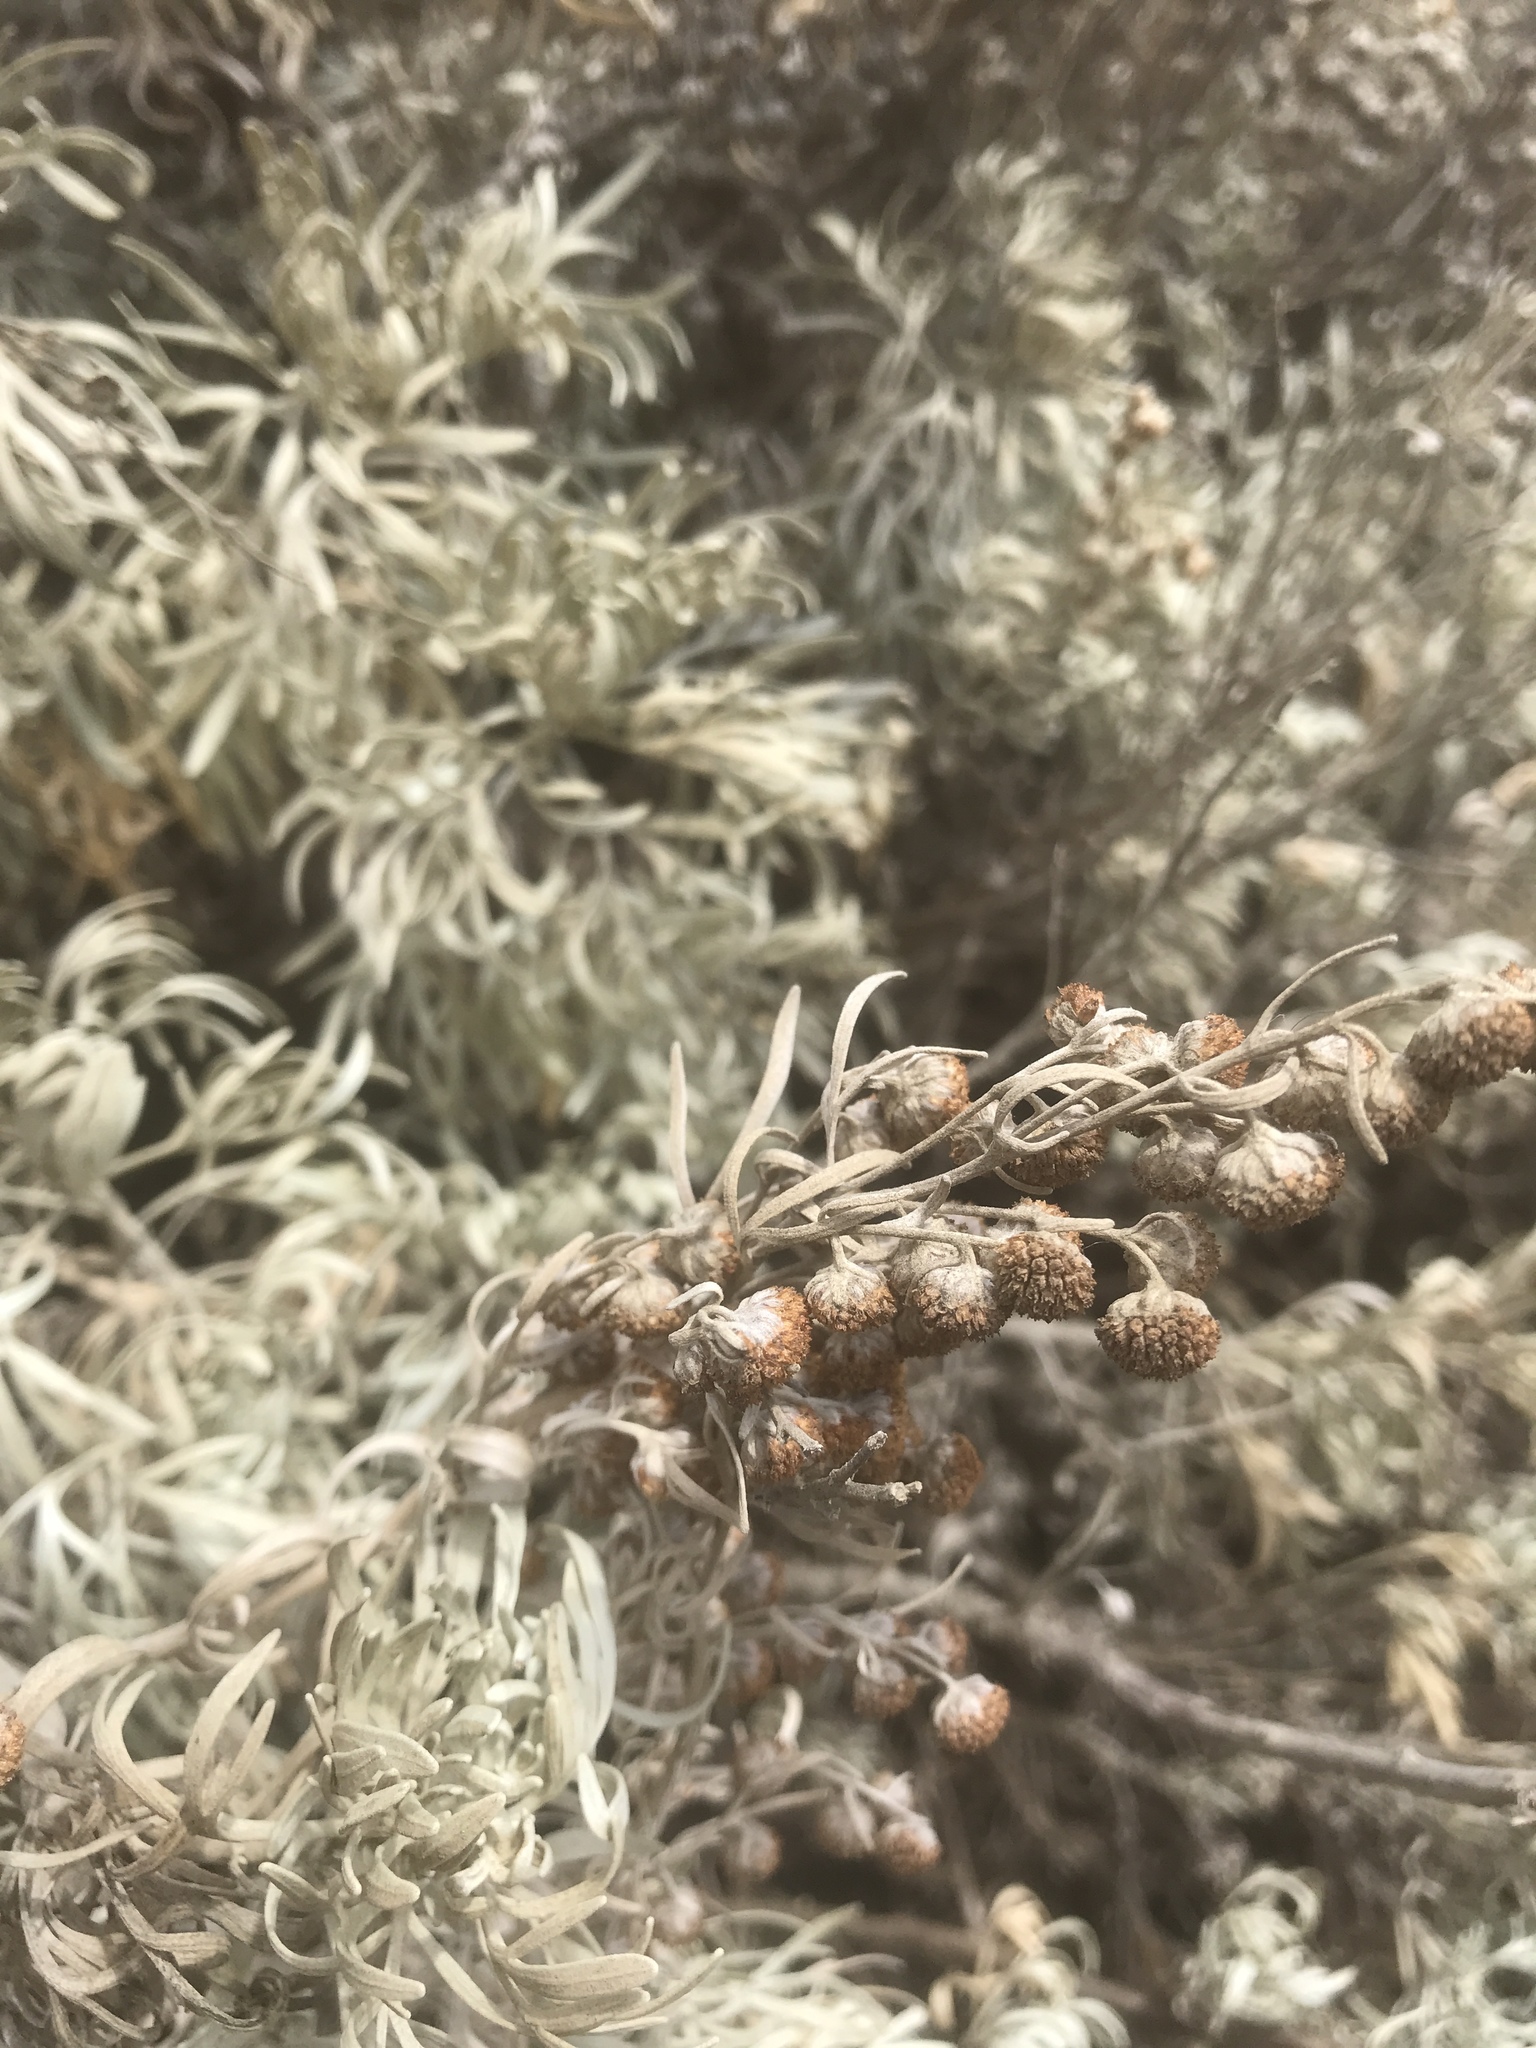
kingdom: Plantae
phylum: Tracheophyta
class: Magnoliopsida
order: Asterales
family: Asteraceae
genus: Artemisia
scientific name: Artemisia californica
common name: California sagebrush
